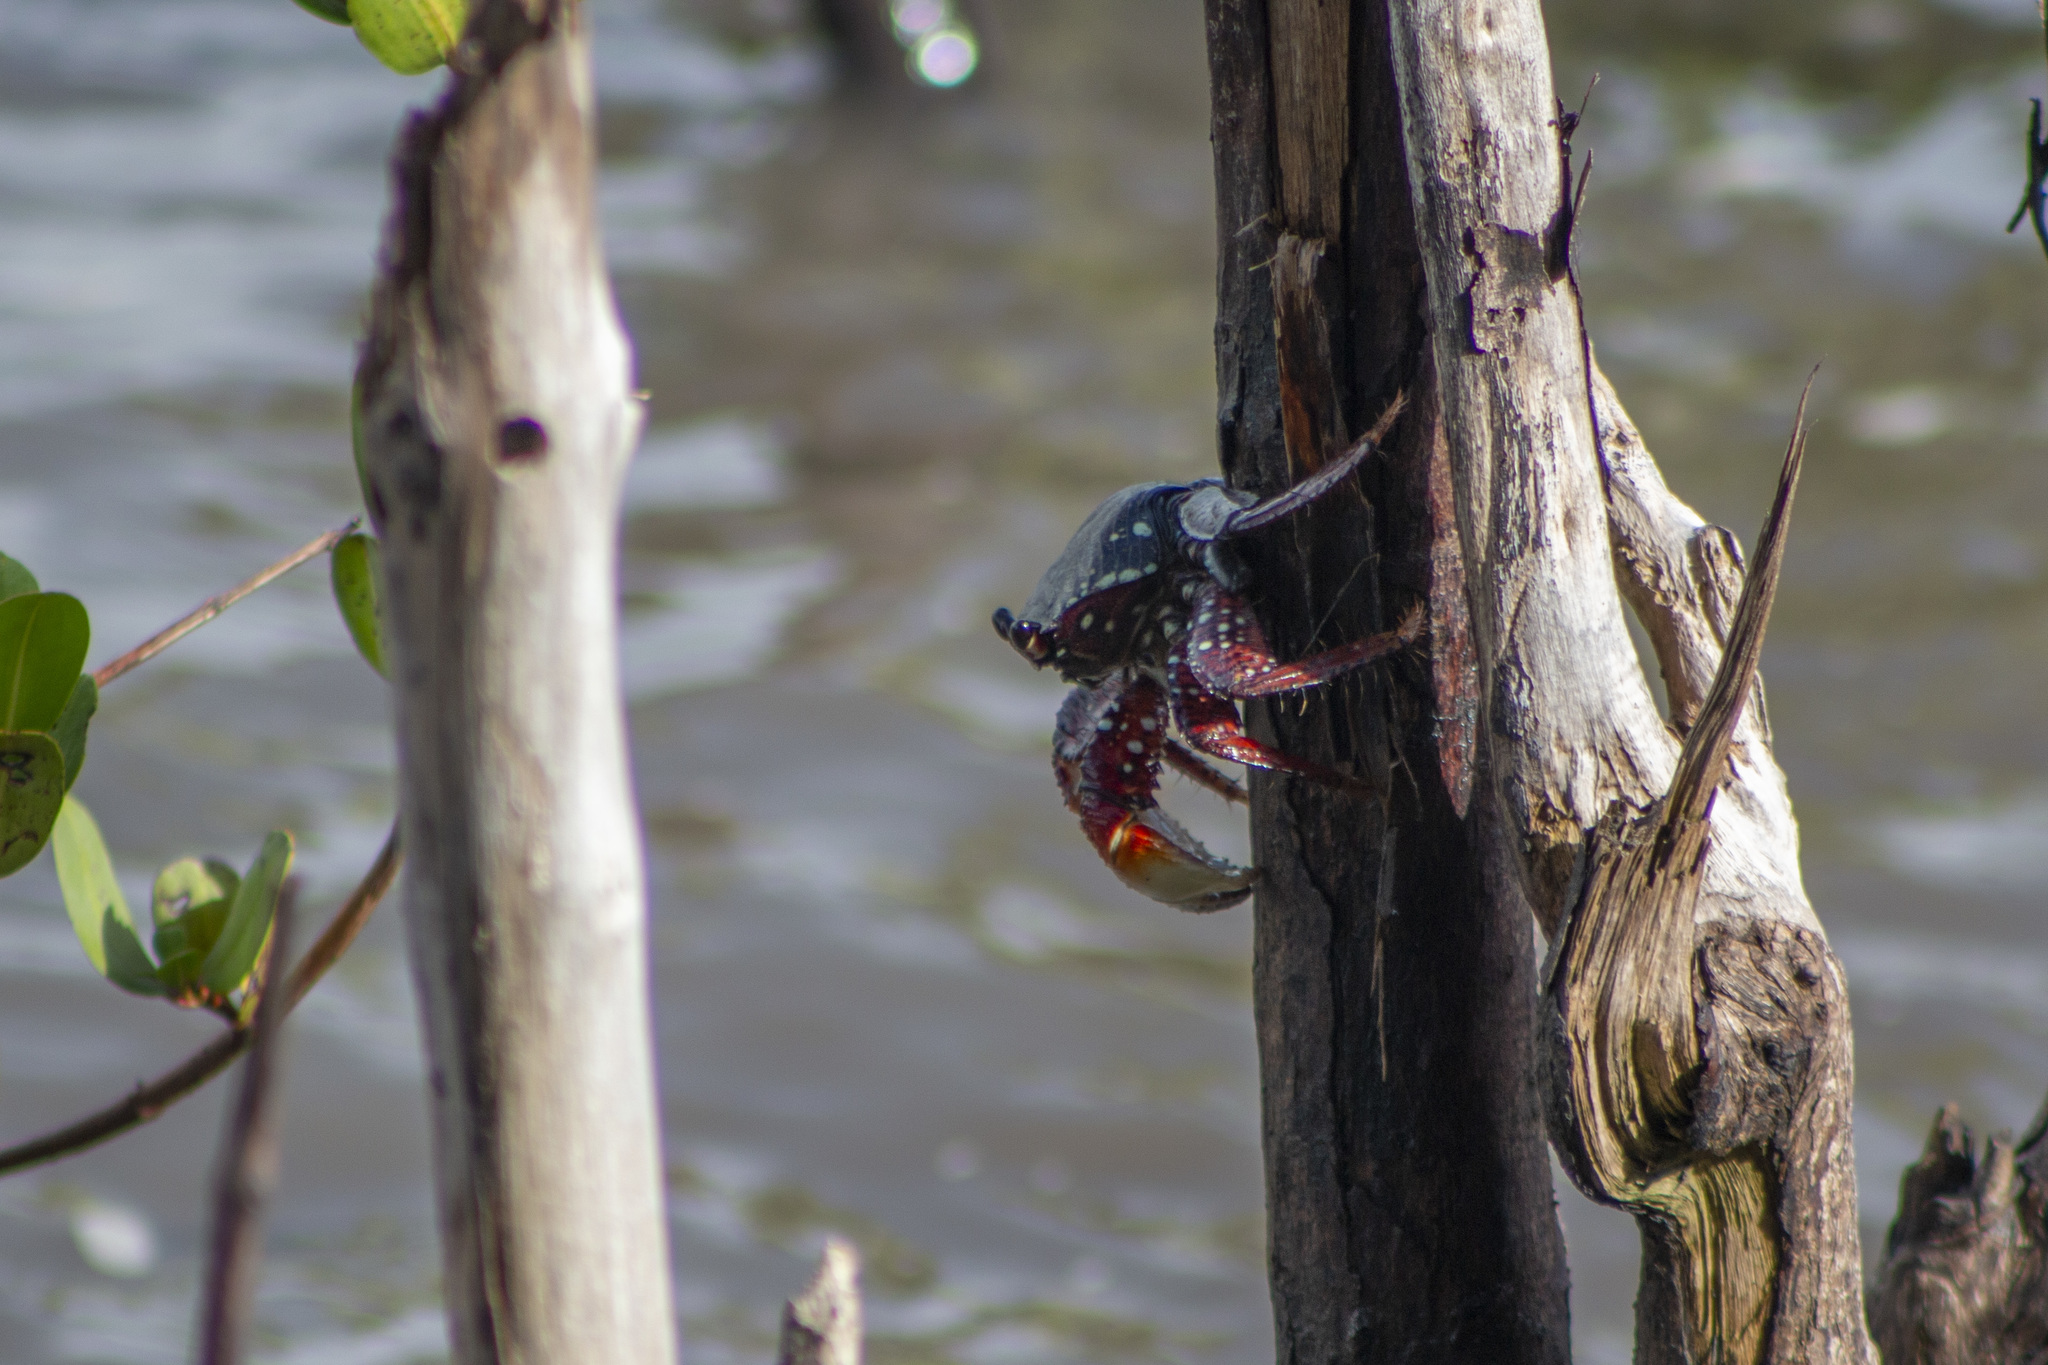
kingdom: Animalia
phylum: Arthropoda
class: Malacostraca
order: Decapoda
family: Grapsidae
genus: Goniopsis
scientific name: Goniopsis cruentata
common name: Mangrove crab
